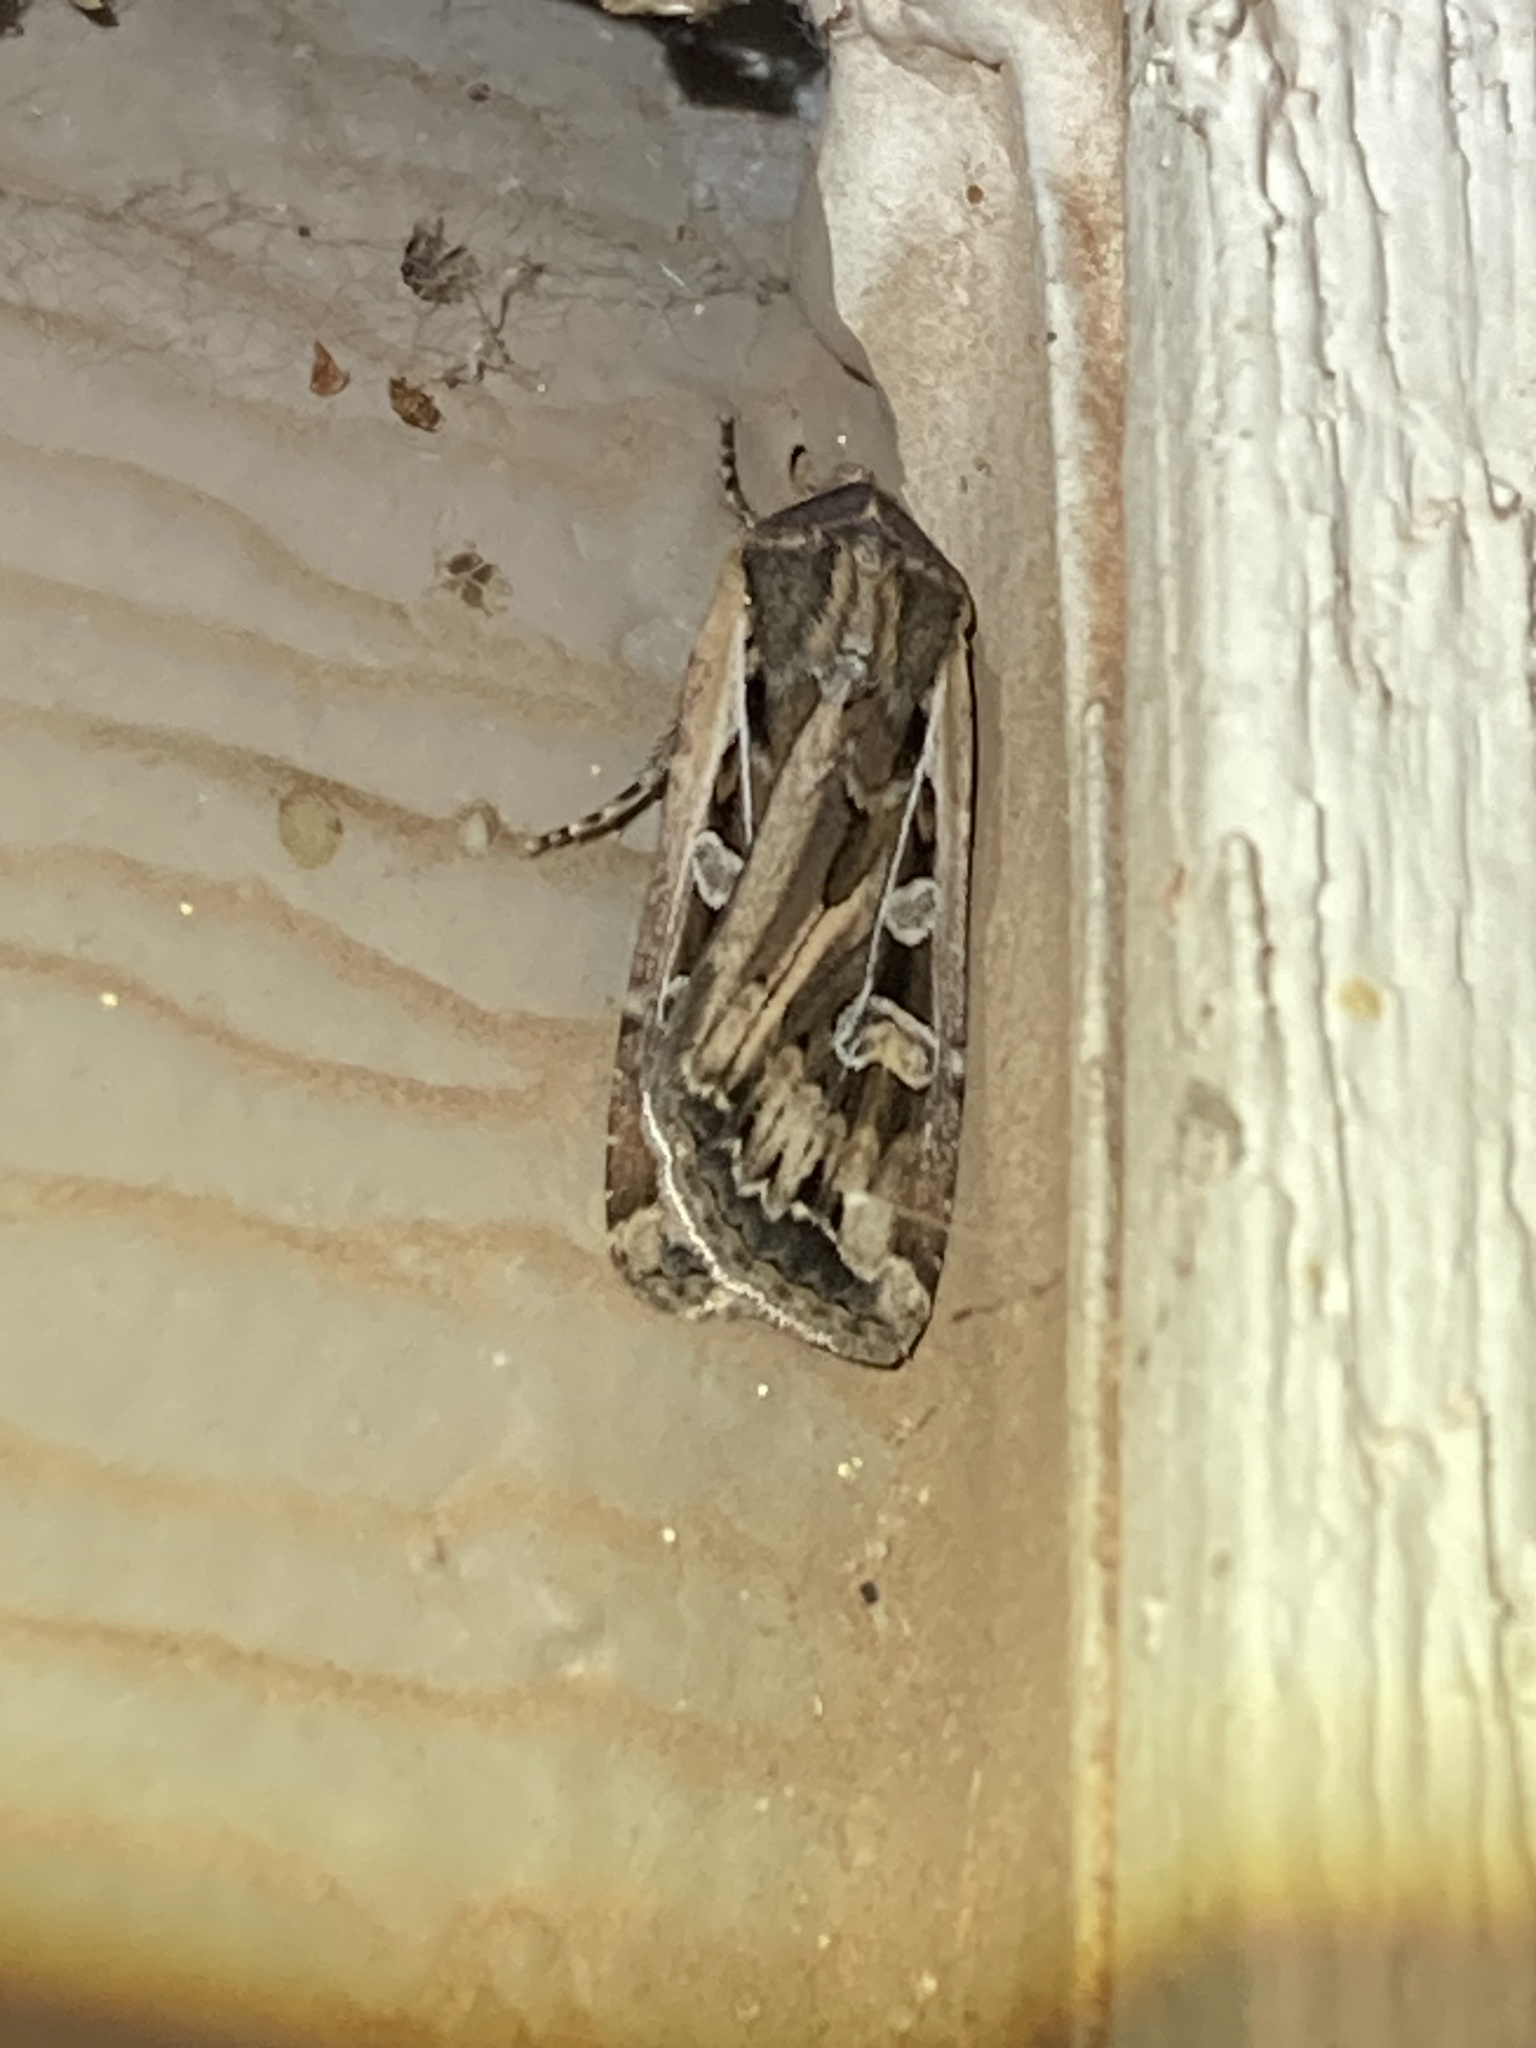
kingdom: Animalia
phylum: Arthropoda
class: Insecta
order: Lepidoptera
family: Noctuidae
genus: Euxoa
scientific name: Euxoa auxiliaris
